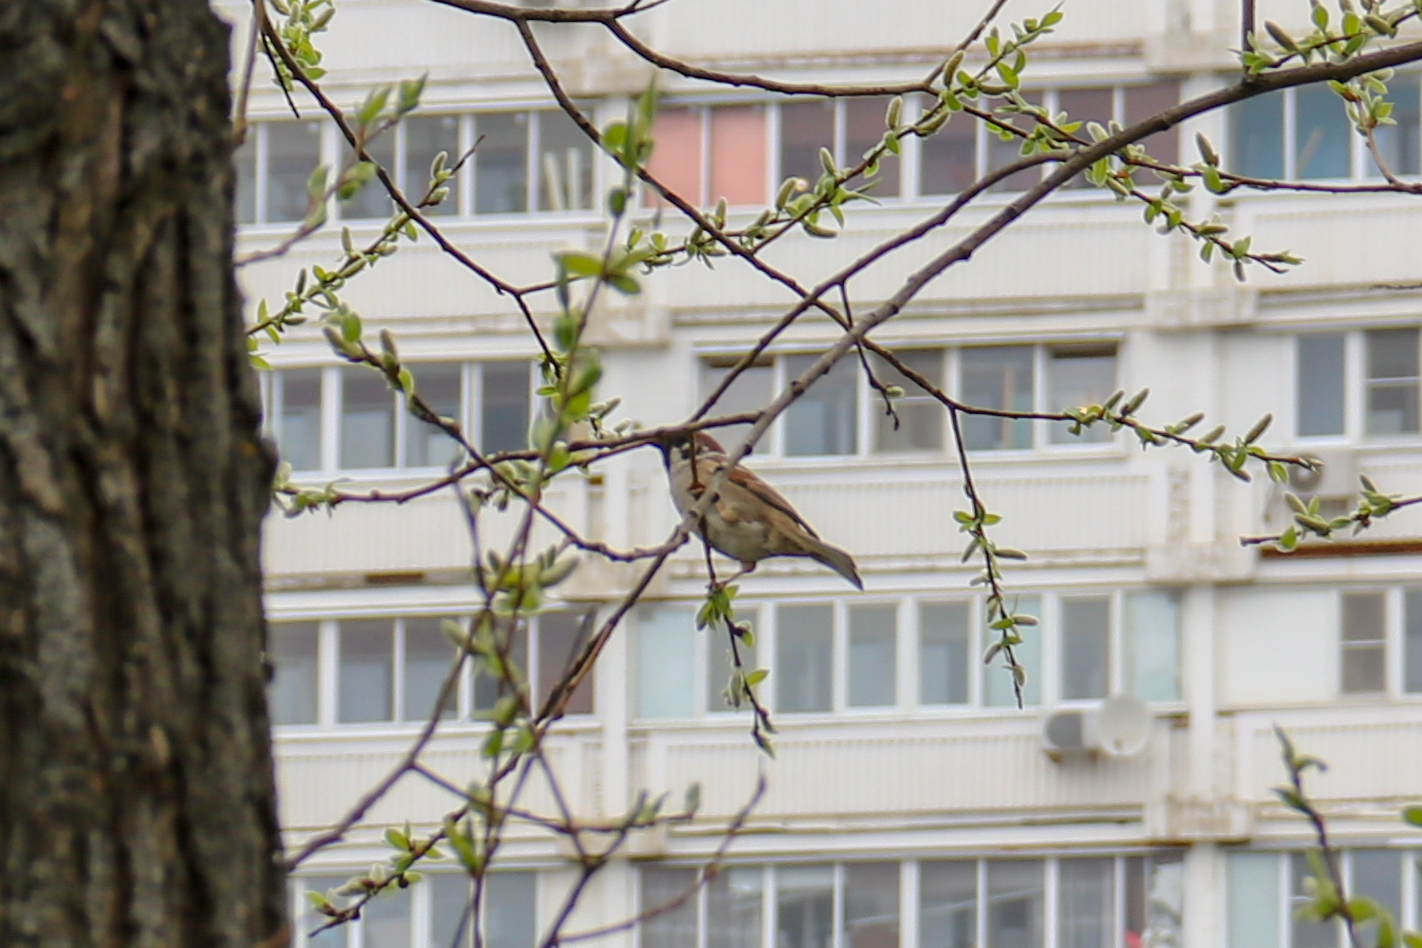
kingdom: Animalia
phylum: Chordata
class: Aves
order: Passeriformes
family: Passeridae
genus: Passer
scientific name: Passer montanus
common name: Eurasian tree sparrow
